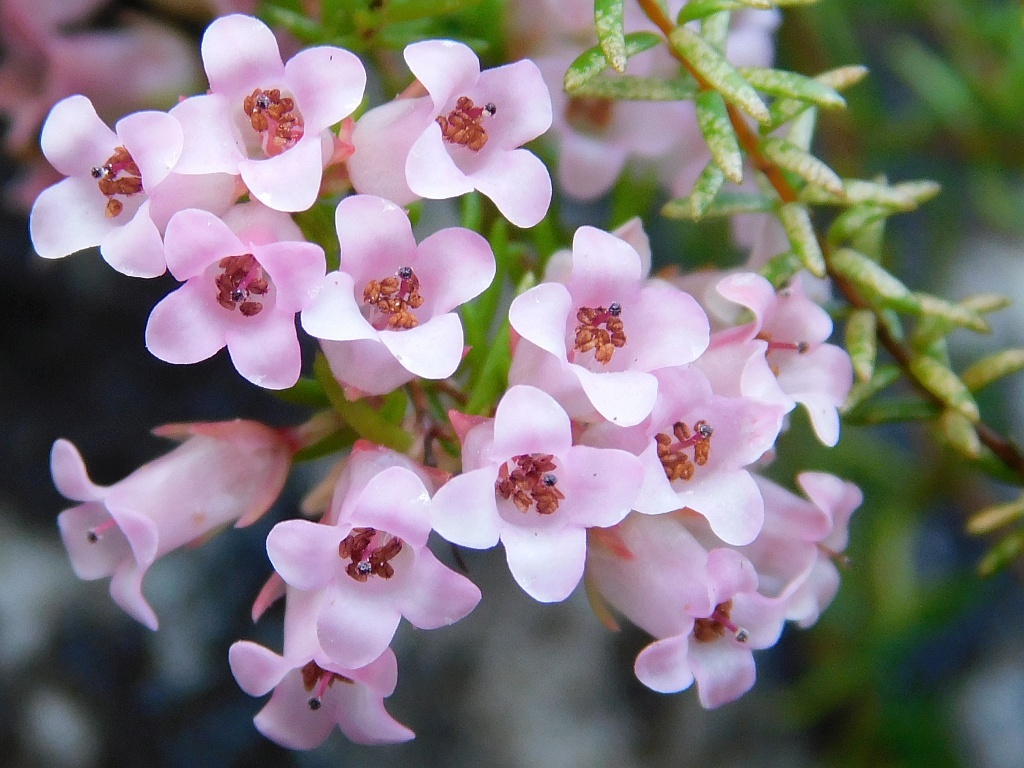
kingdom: Plantae
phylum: Tracheophyta
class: Magnoliopsida
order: Ericales
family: Ericaceae
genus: Erica
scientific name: Erica leucantha
